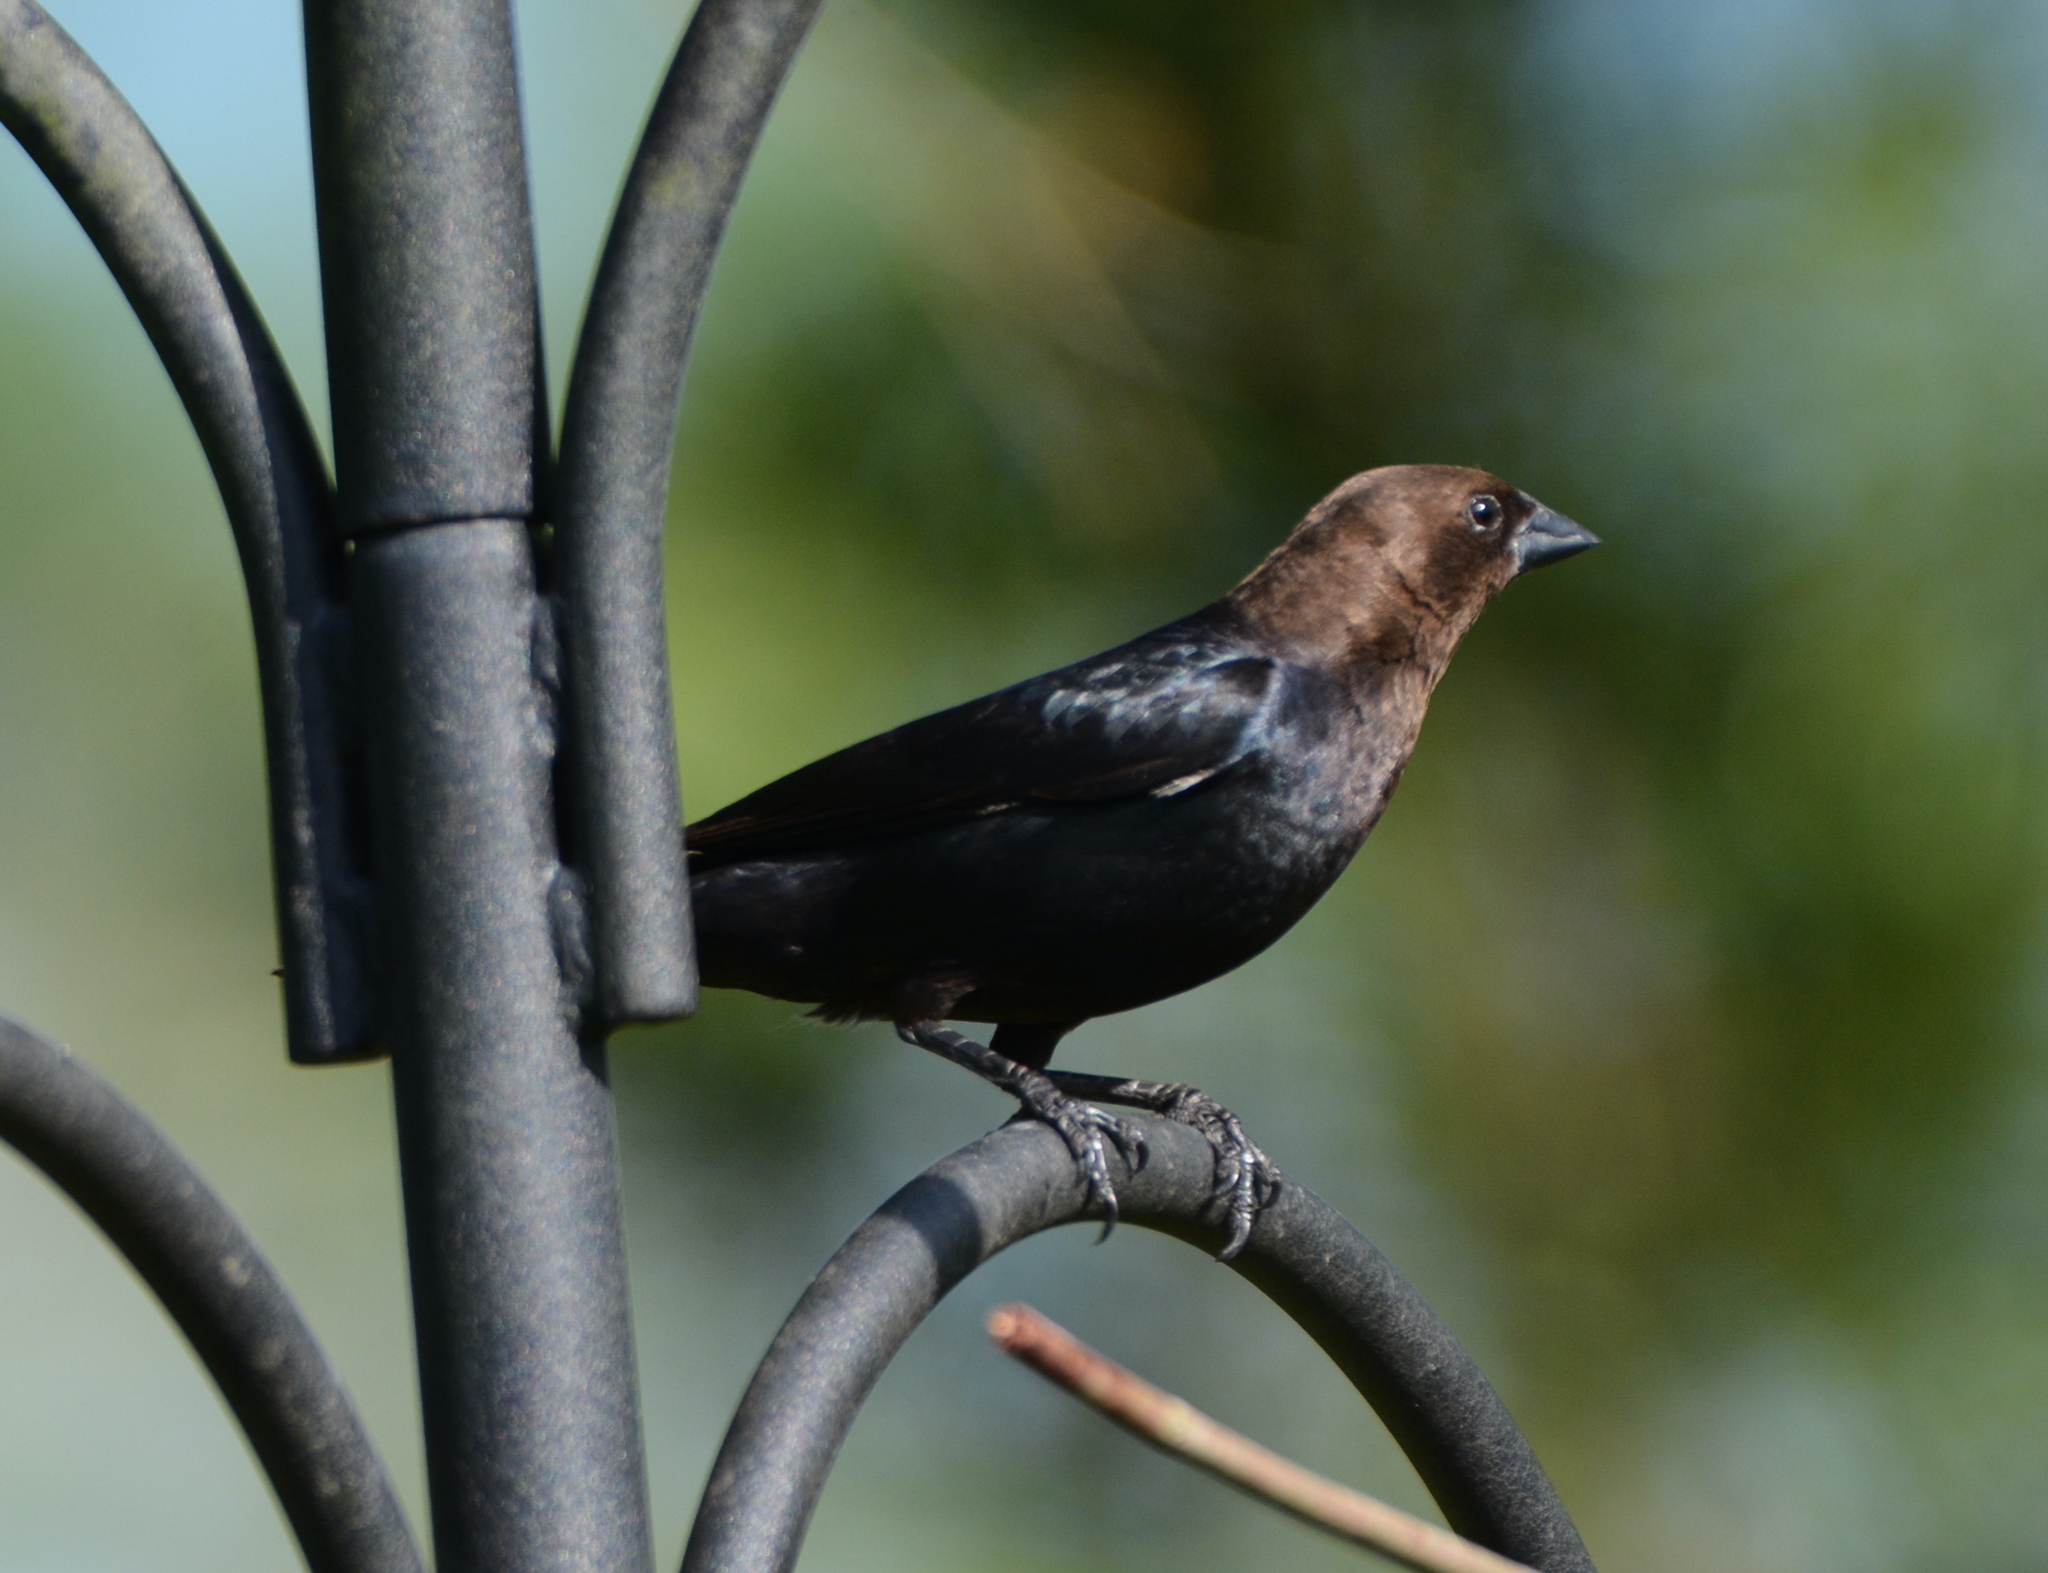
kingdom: Animalia
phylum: Chordata
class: Aves
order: Passeriformes
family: Icteridae
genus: Molothrus
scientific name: Molothrus ater
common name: Brown-headed cowbird
